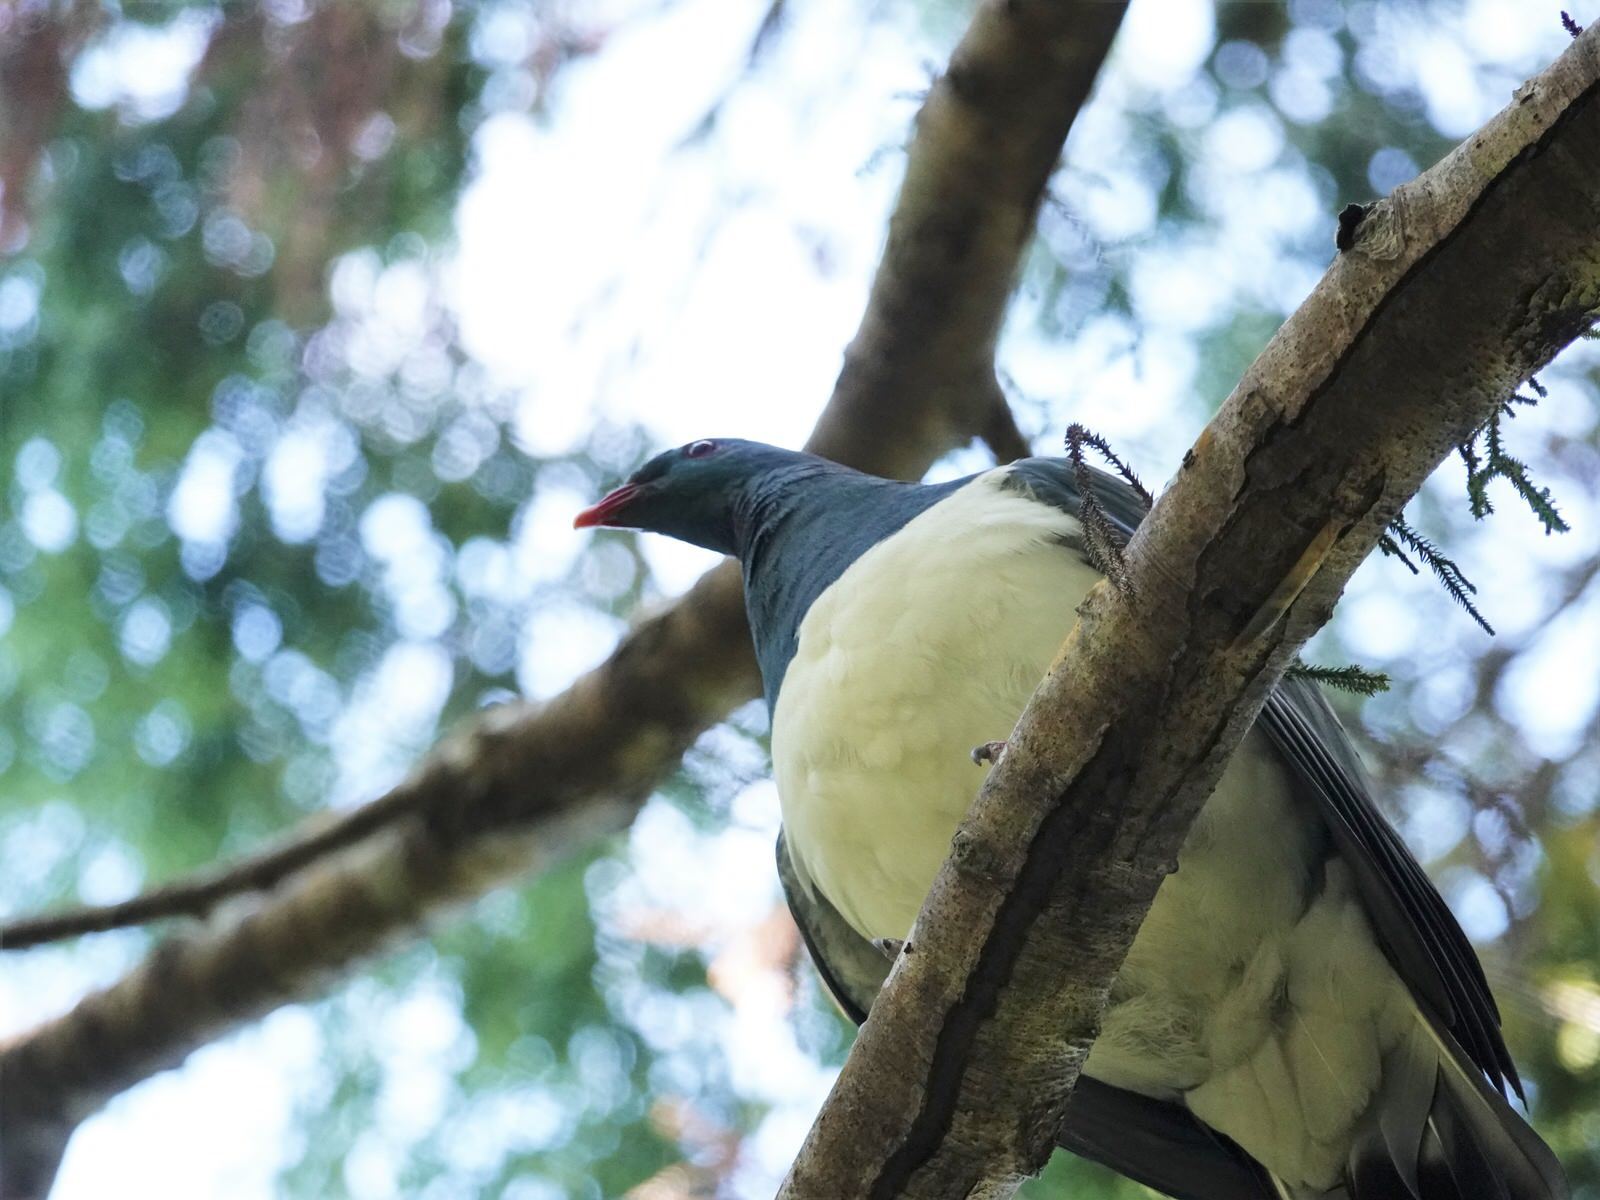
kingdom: Animalia
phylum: Chordata
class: Aves
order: Columbiformes
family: Columbidae
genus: Hemiphaga
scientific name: Hemiphaga novaeseelandiae
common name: New zealand pigeon
